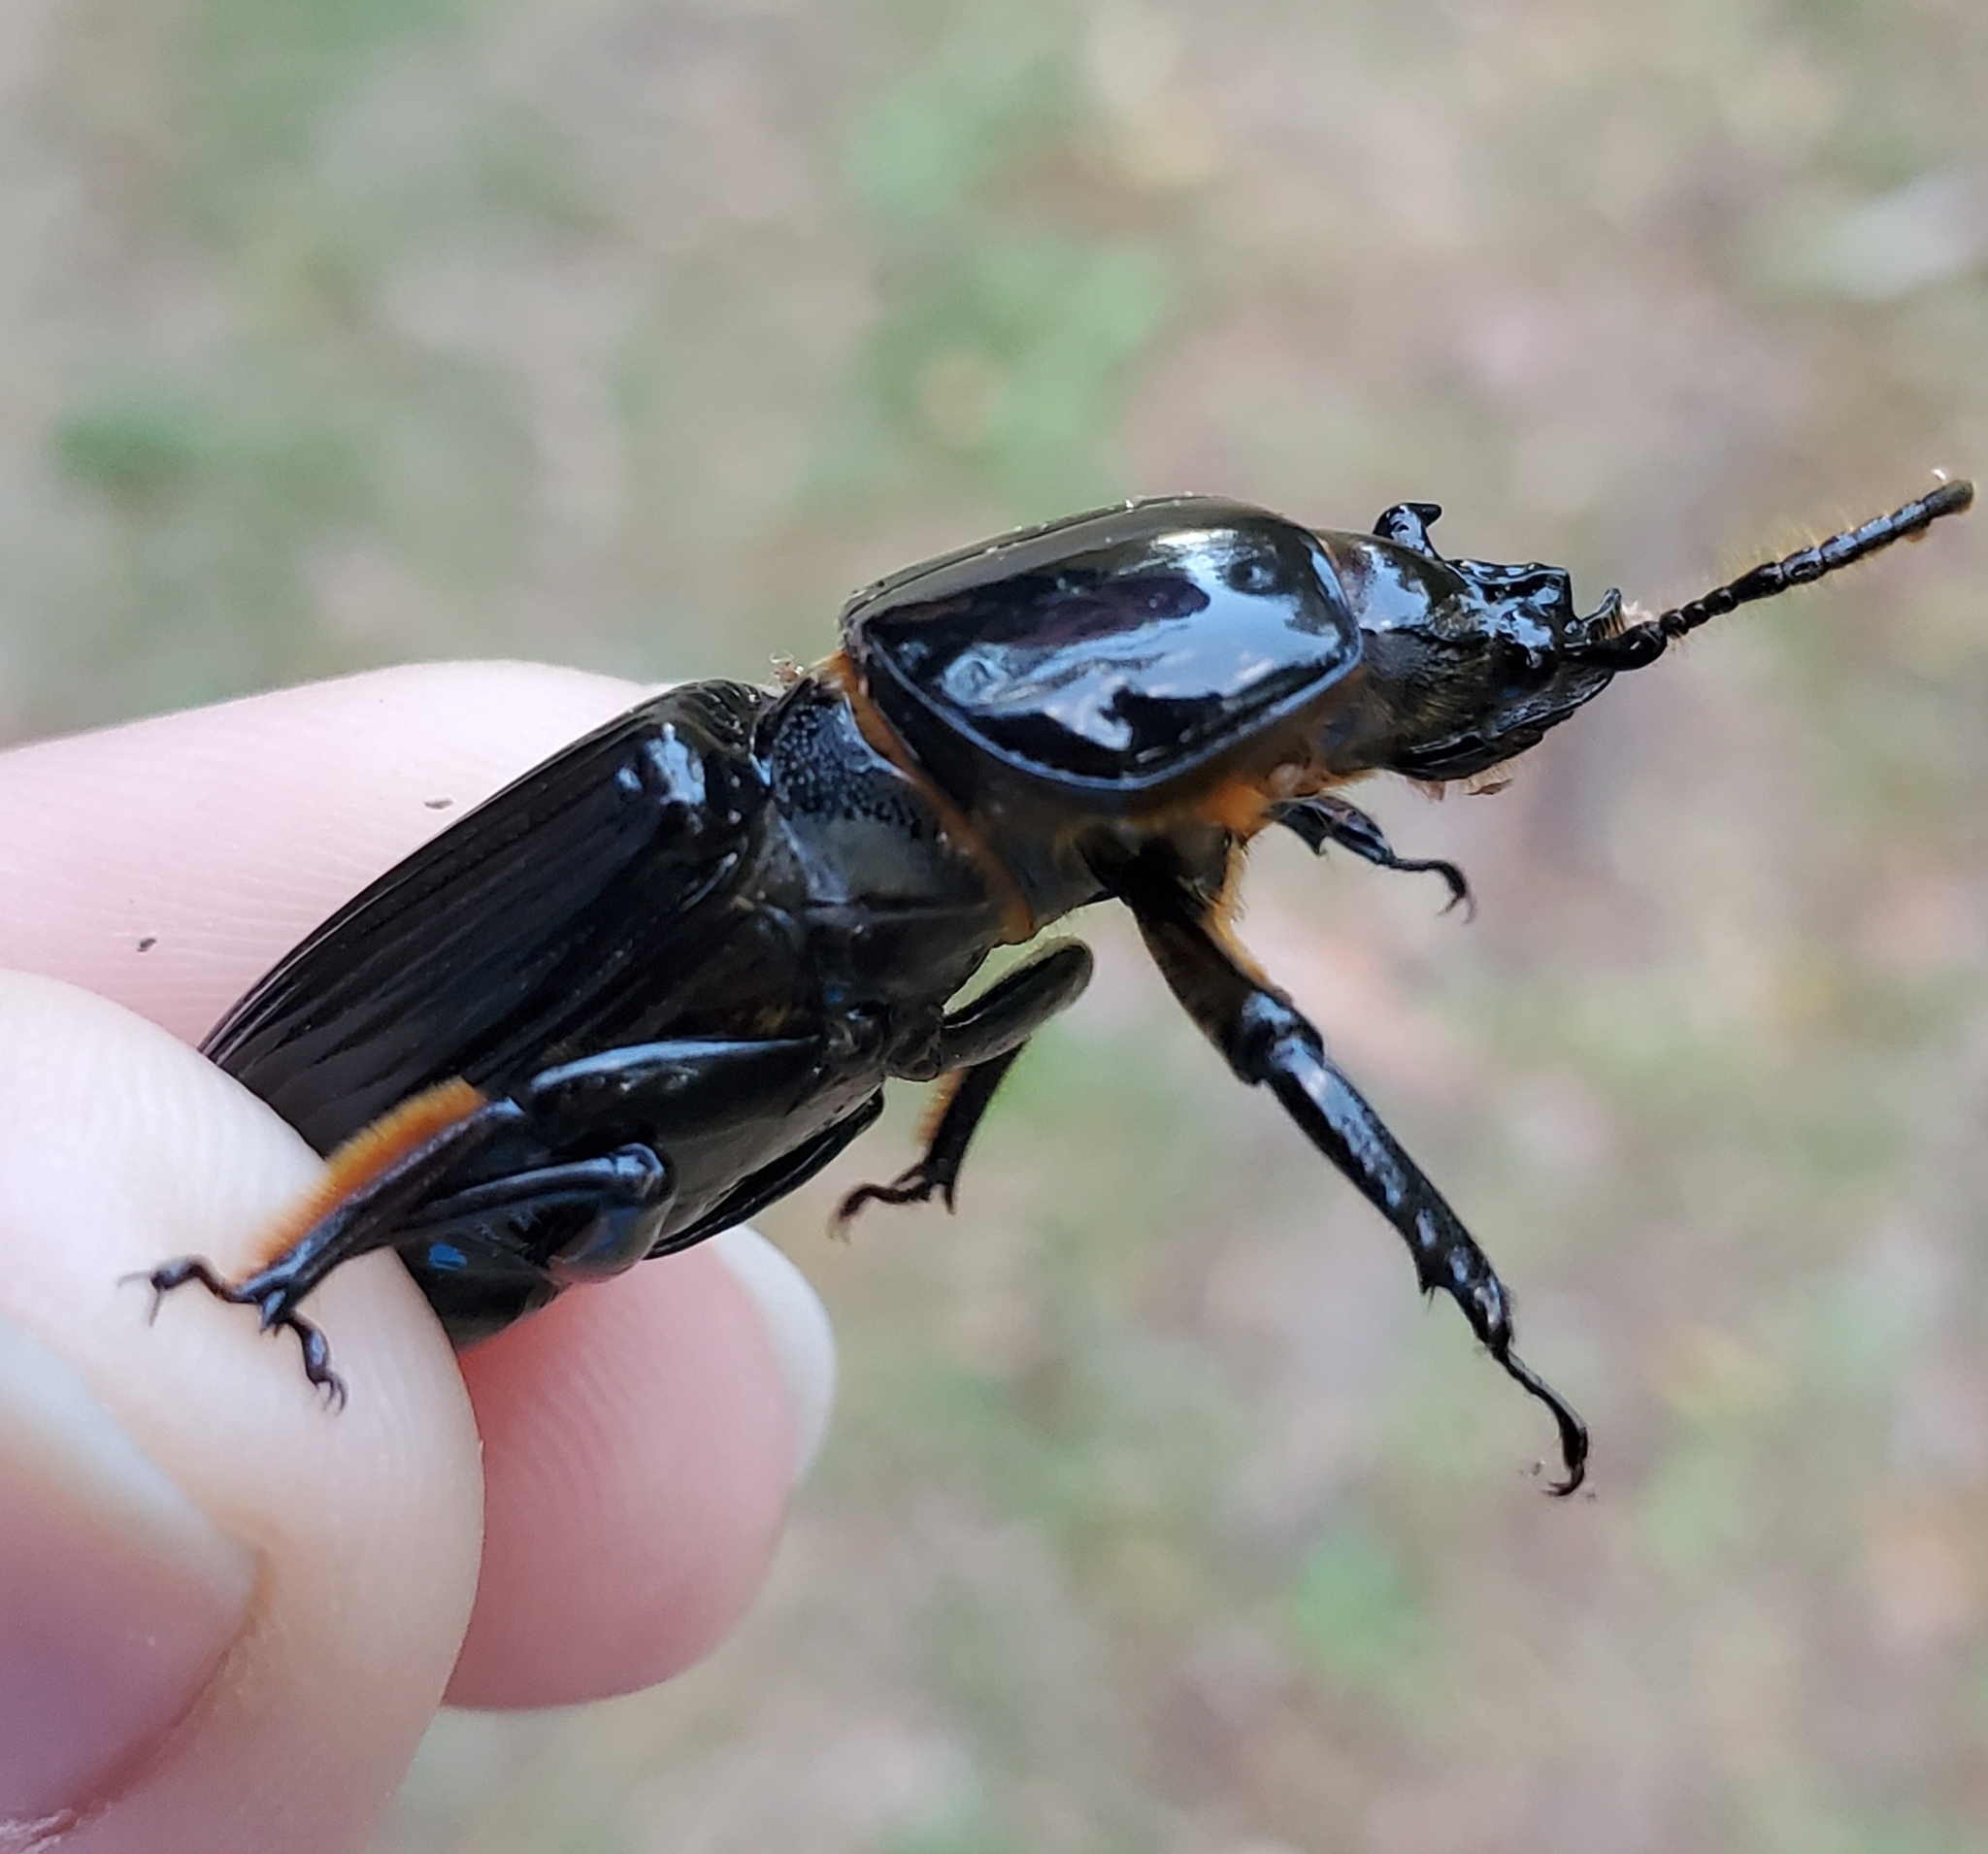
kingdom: Animalia
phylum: Arthropoda
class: Insecta
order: Coleoptera
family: Passalidae
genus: Odontotaenius
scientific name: Odontotaenius disjunctus
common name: Patent leather beetle
